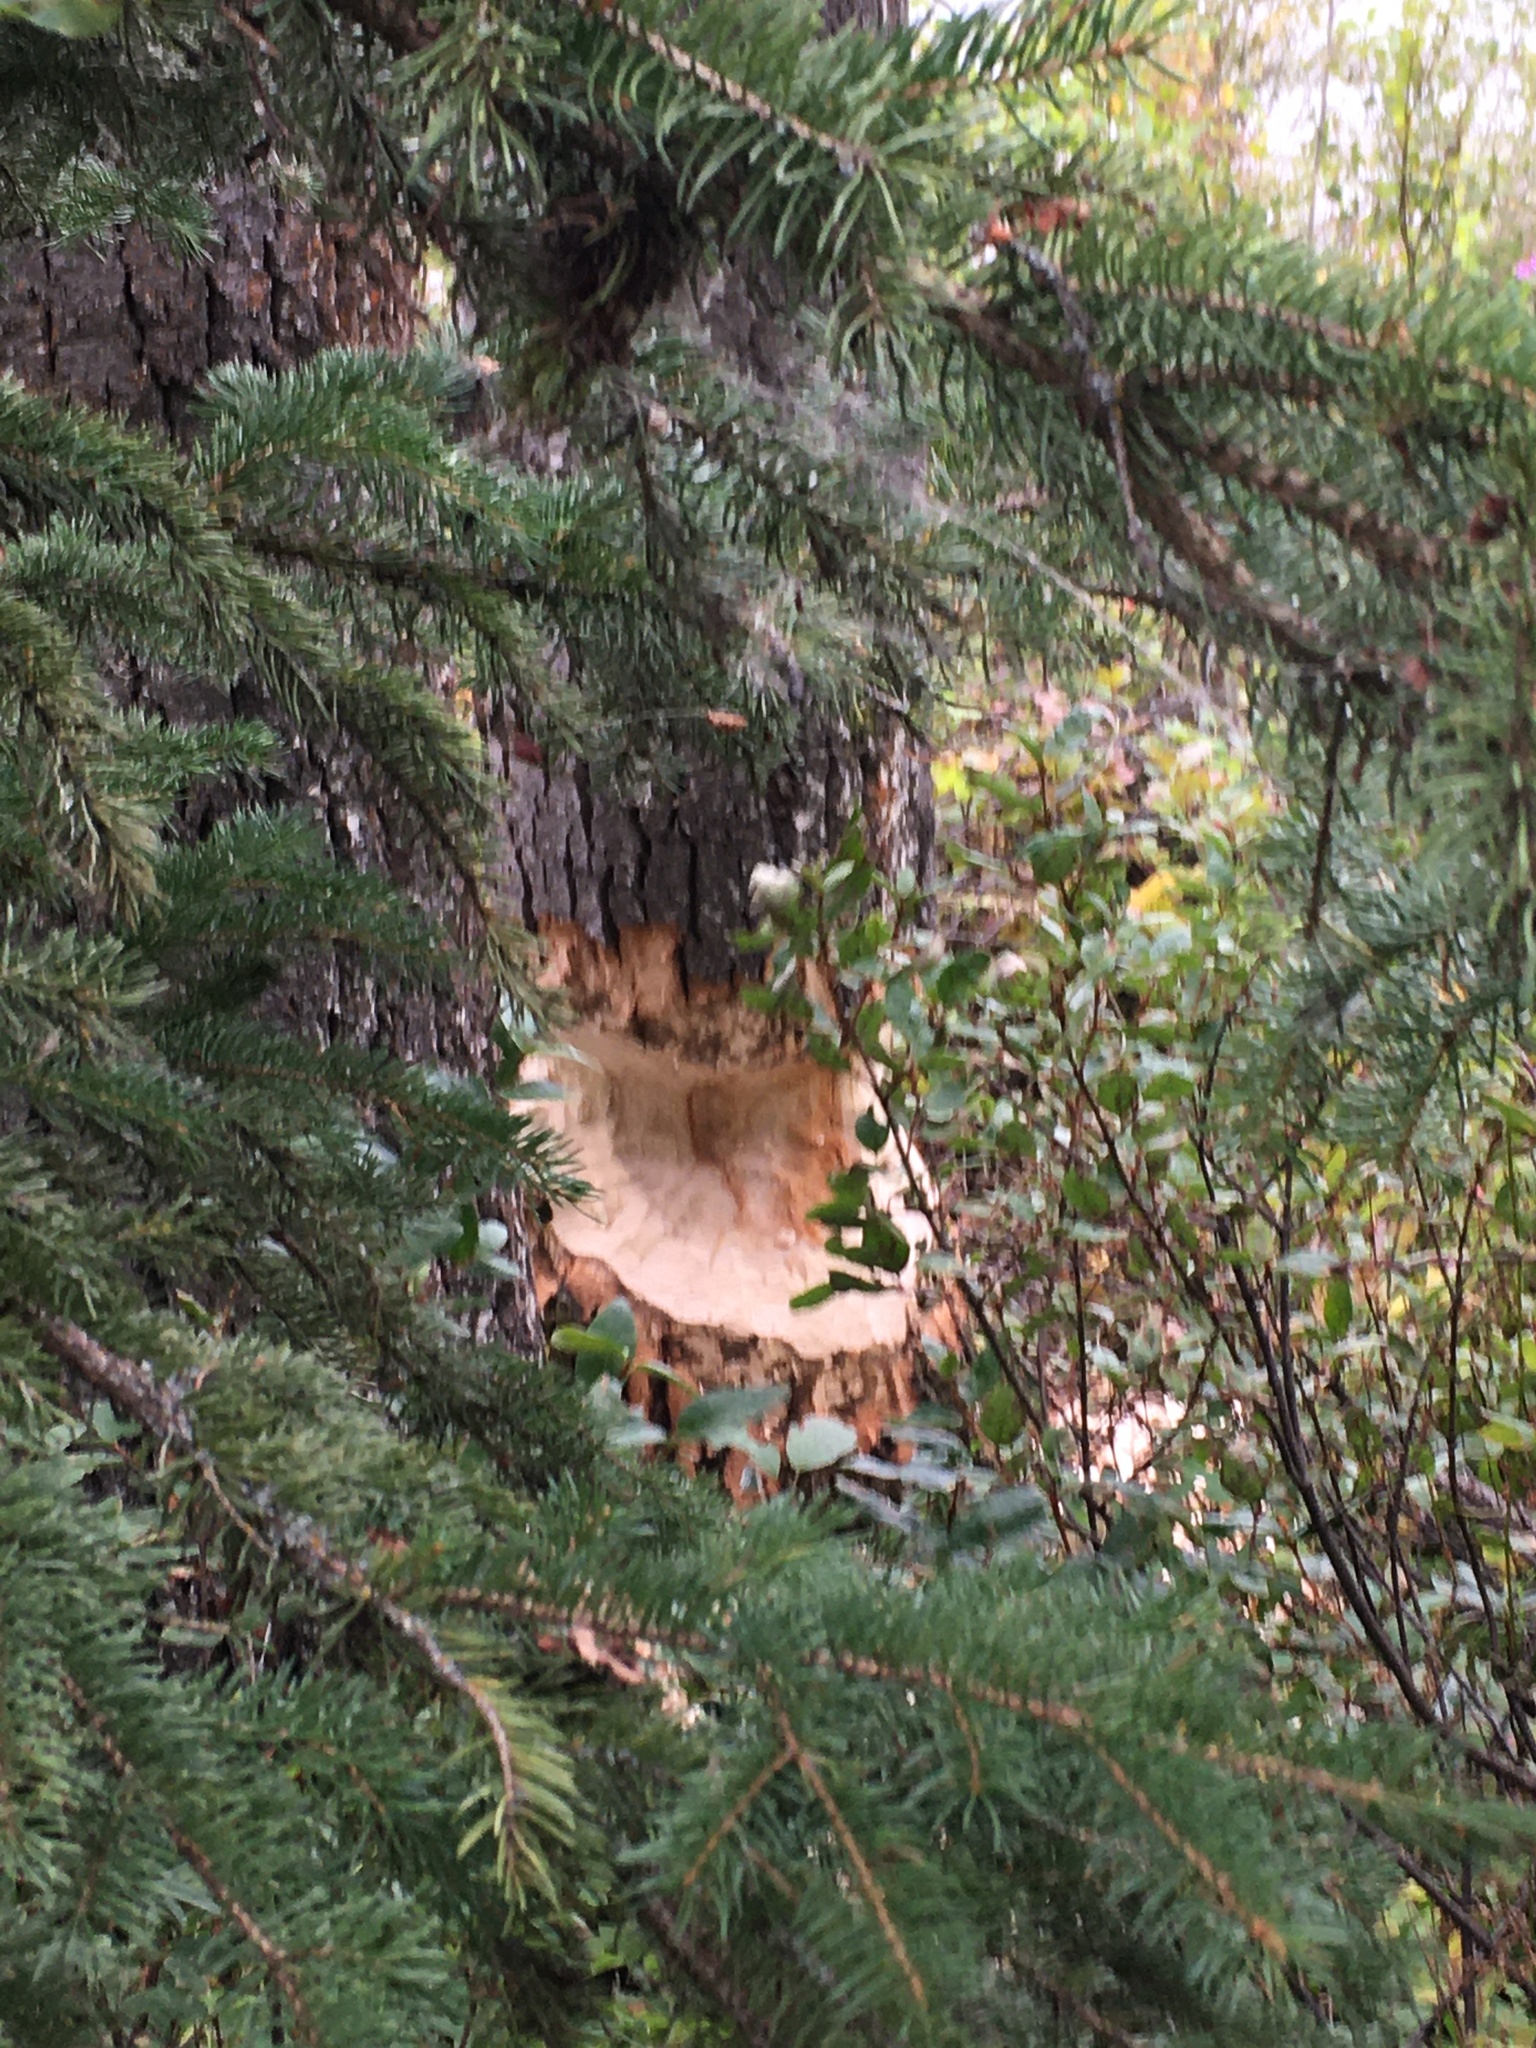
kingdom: Animalia
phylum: Chordata
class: Mammalia
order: Rodentia
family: Castoridae
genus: Castor
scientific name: Castor canadensis
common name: American beaver
